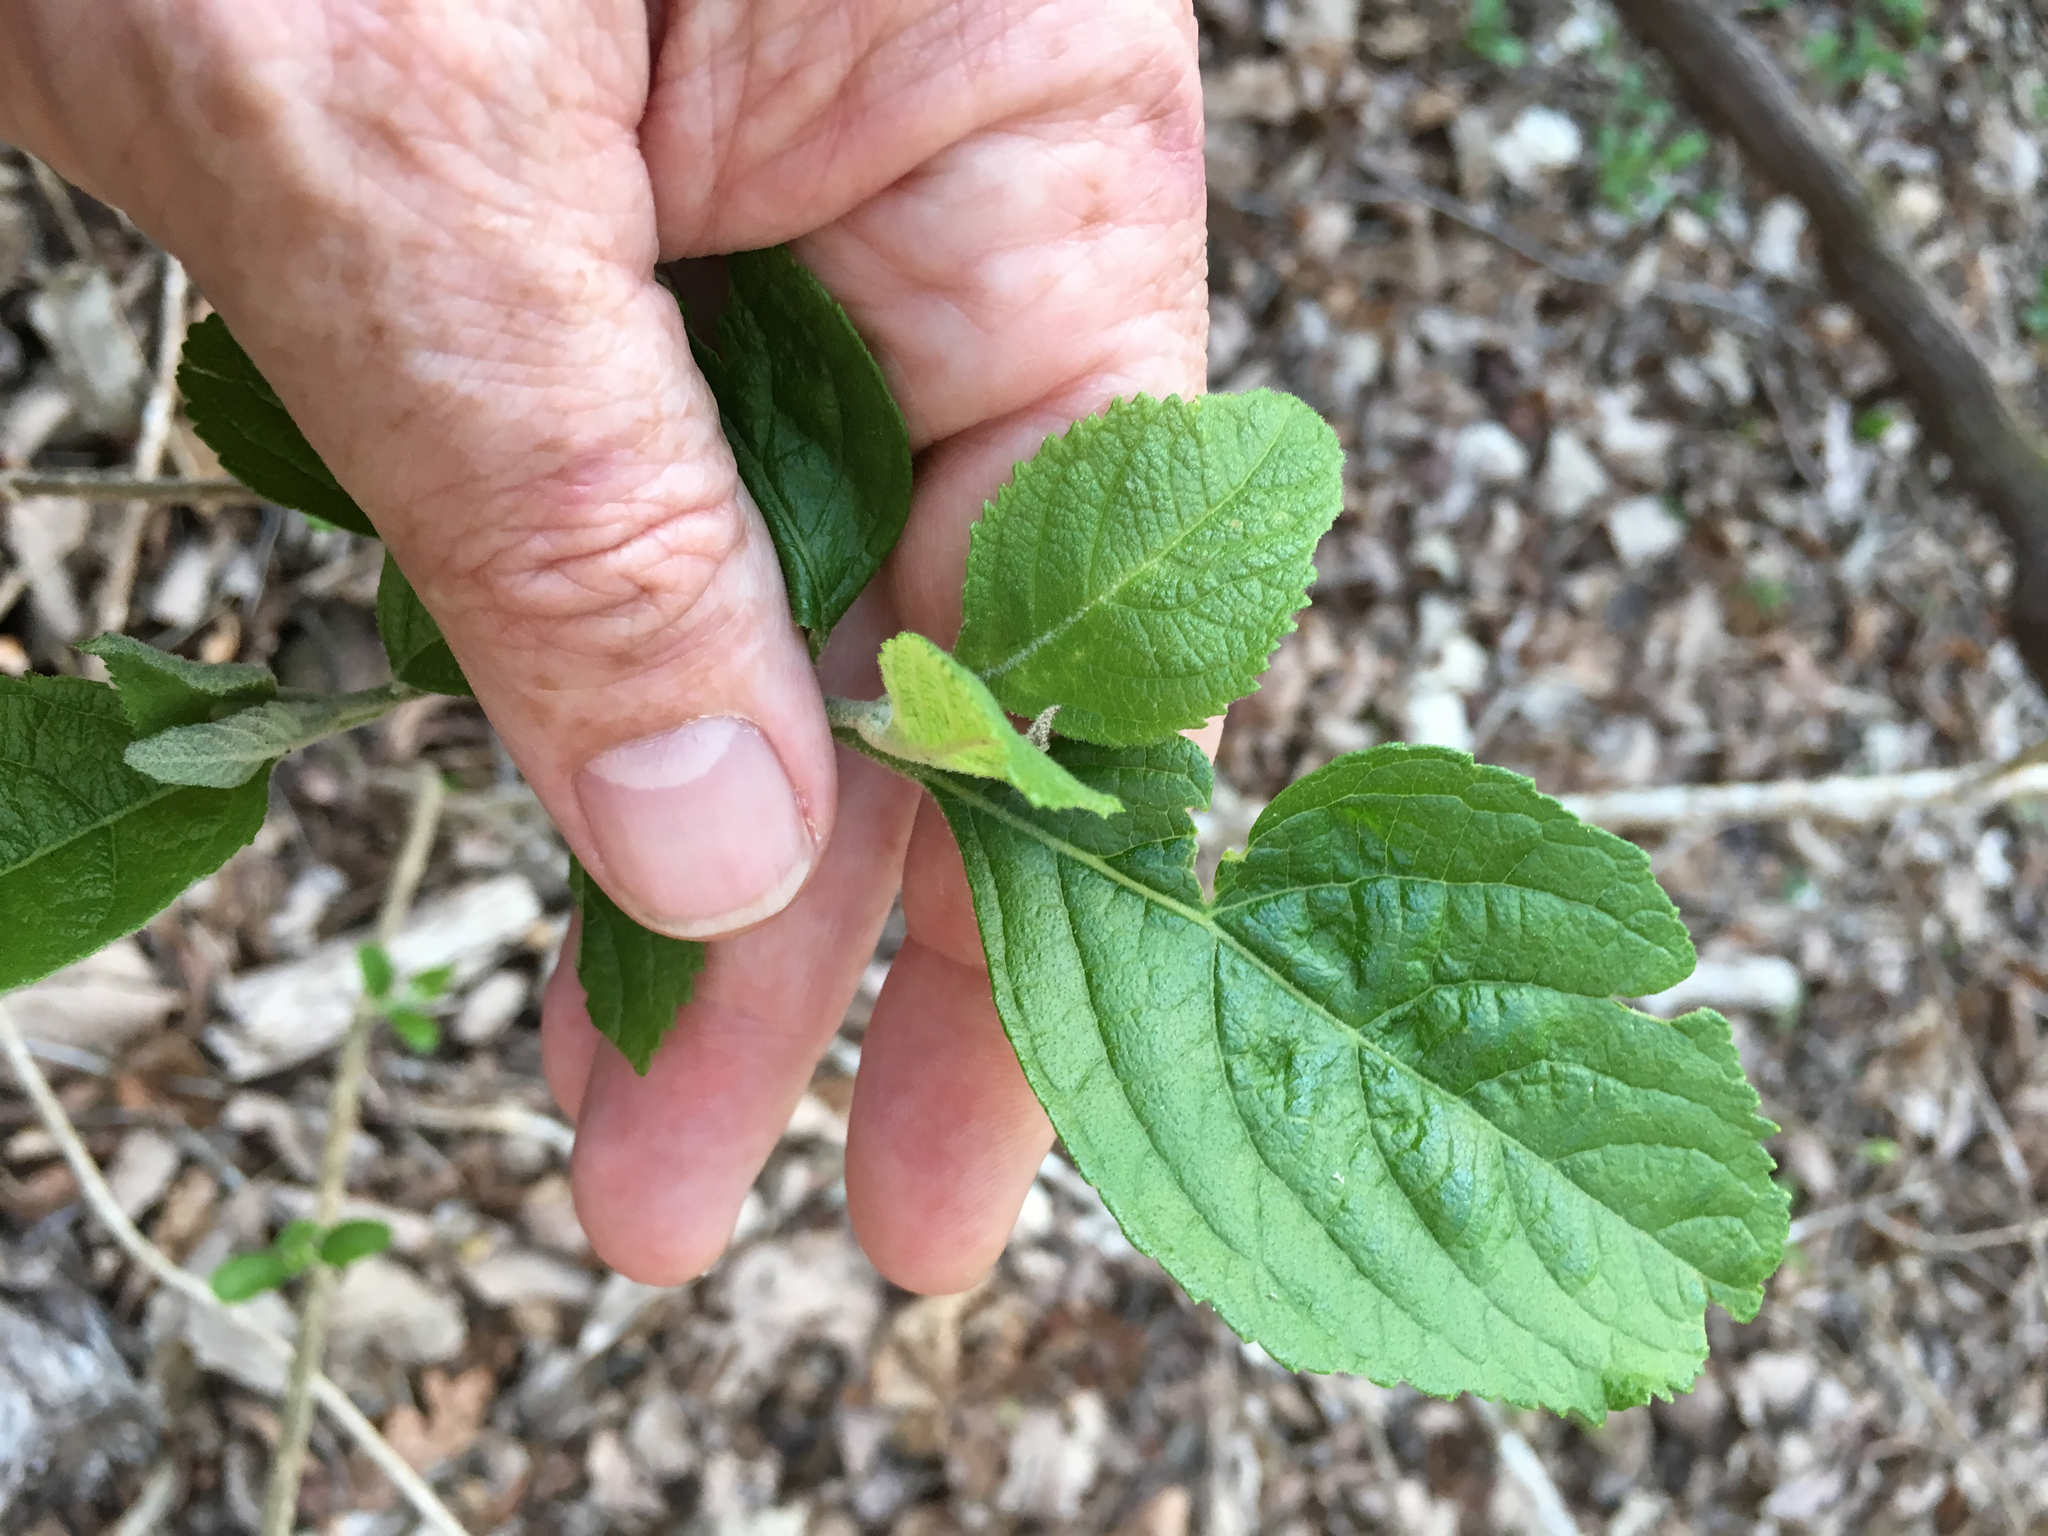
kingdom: Plantae
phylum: Tracheophyta
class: Magnoliopsida
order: Lamiales
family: Lamiaceae
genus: Callicarpa
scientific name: Callicarpa americana
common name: American beautyberry
